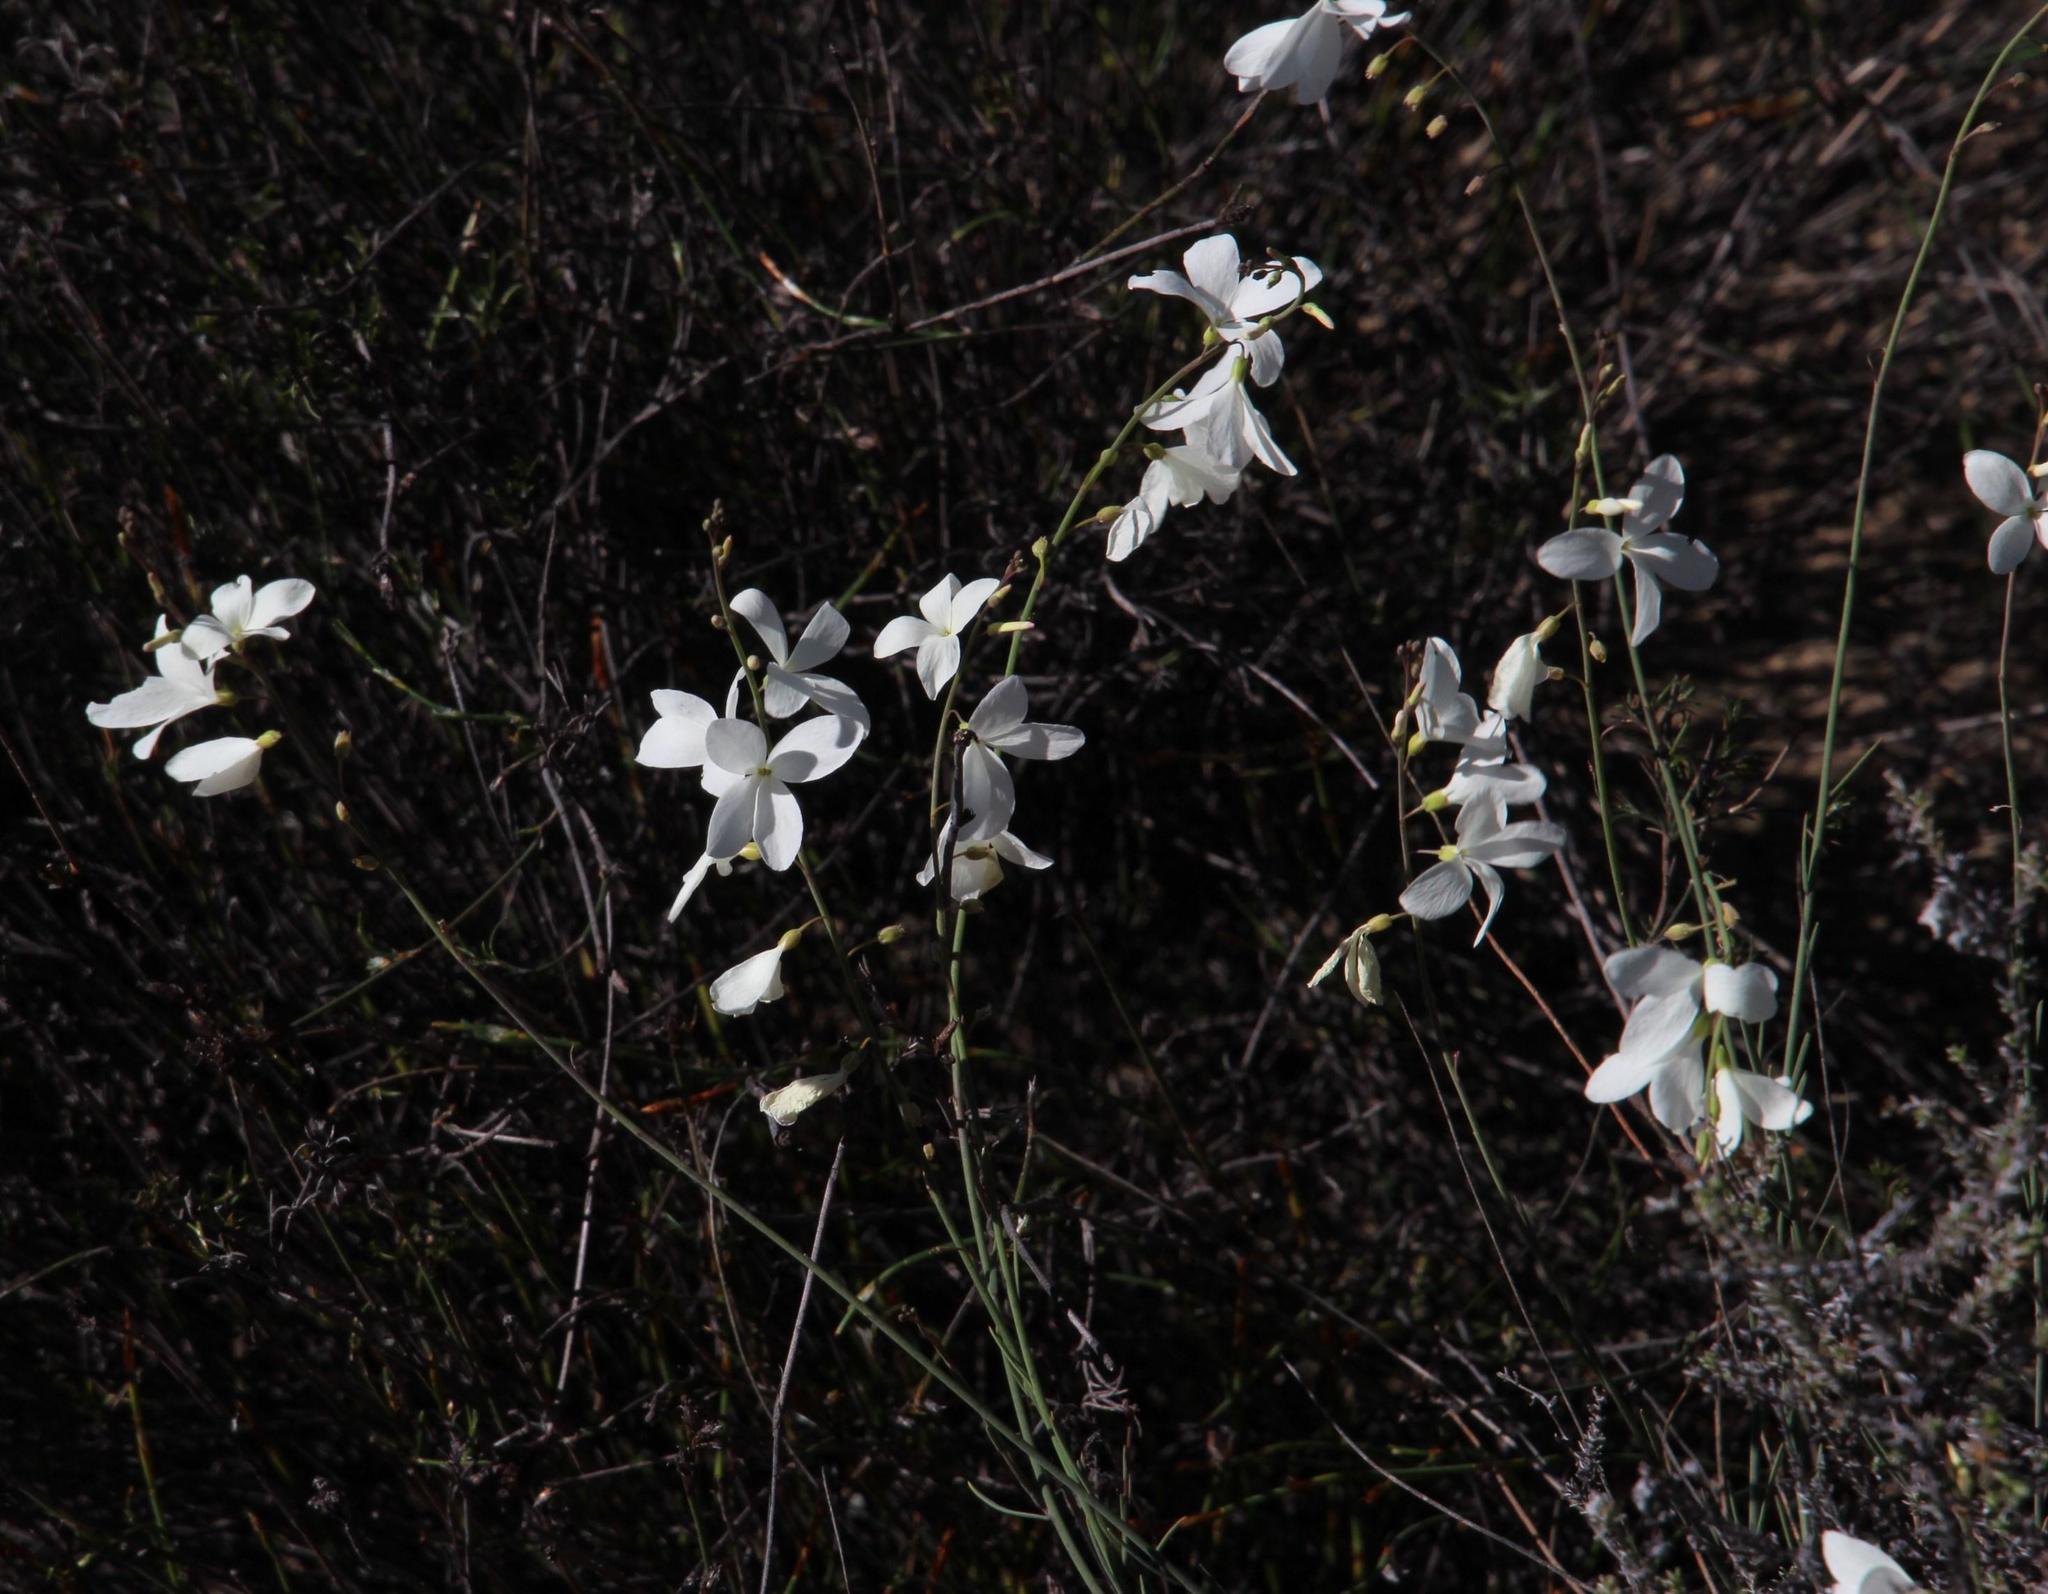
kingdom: Plantae
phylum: Tracheophyta
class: Magnoliopsida
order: Brassicales
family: Brassicaceae
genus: Heliophila
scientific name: Heliophila juncea
